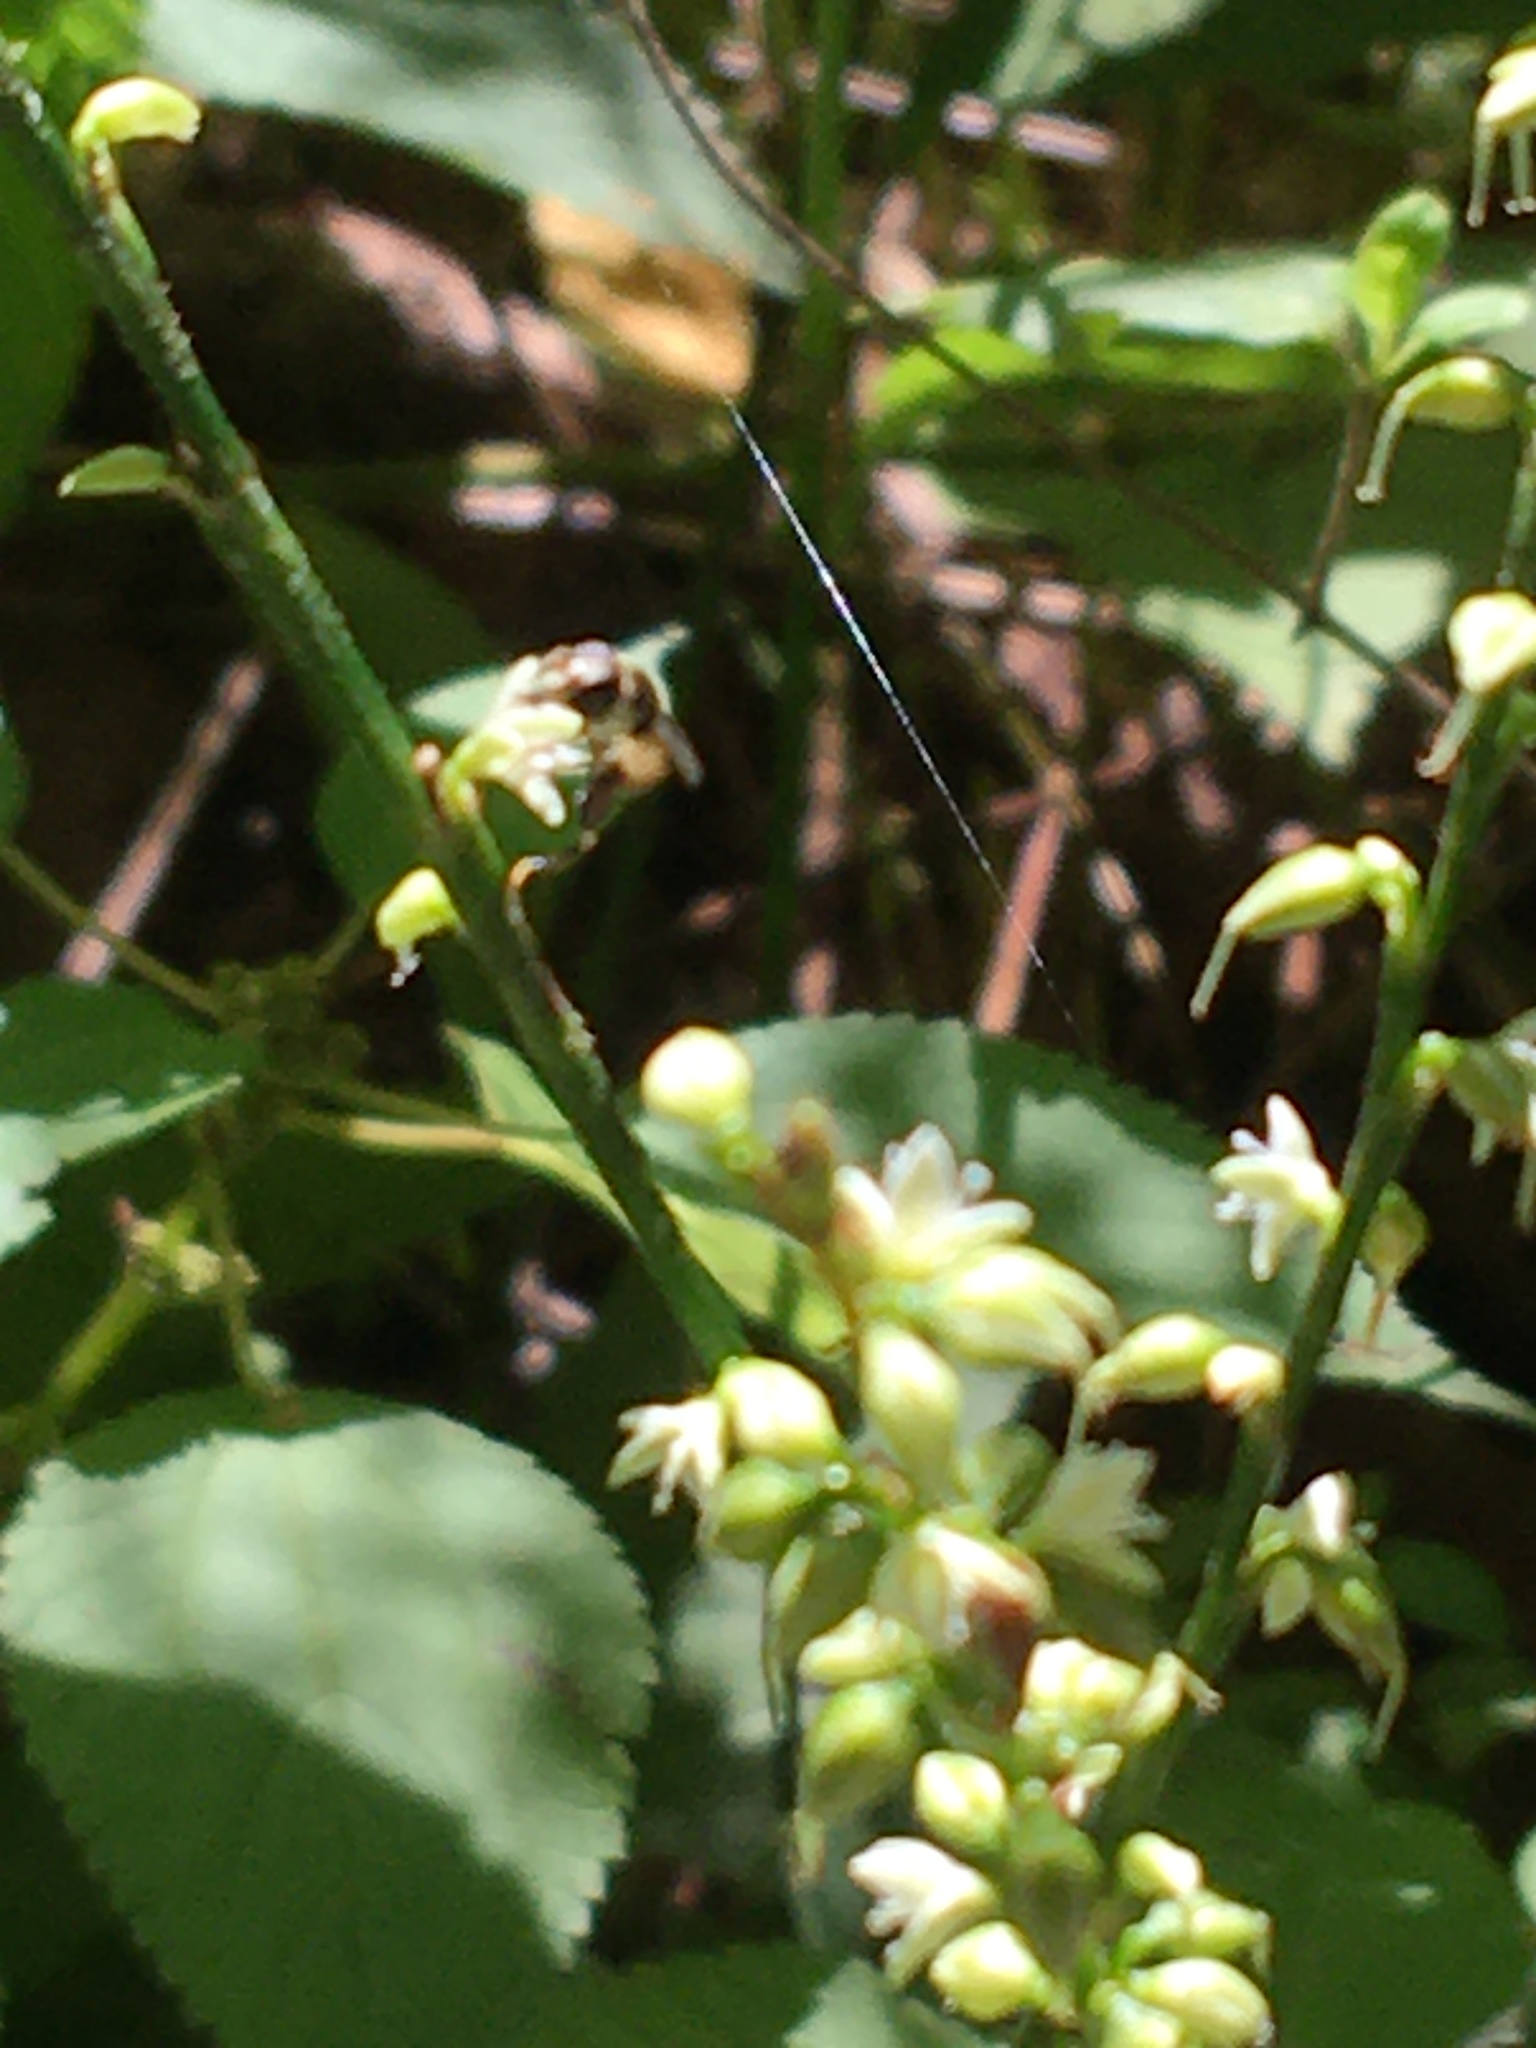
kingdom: Plantae
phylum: Tracheophyta
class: Magnoliopsida
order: Caryophyllales
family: Polygonaceae
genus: Persicaria
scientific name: Persicaria virginiana
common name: Jumpseed
